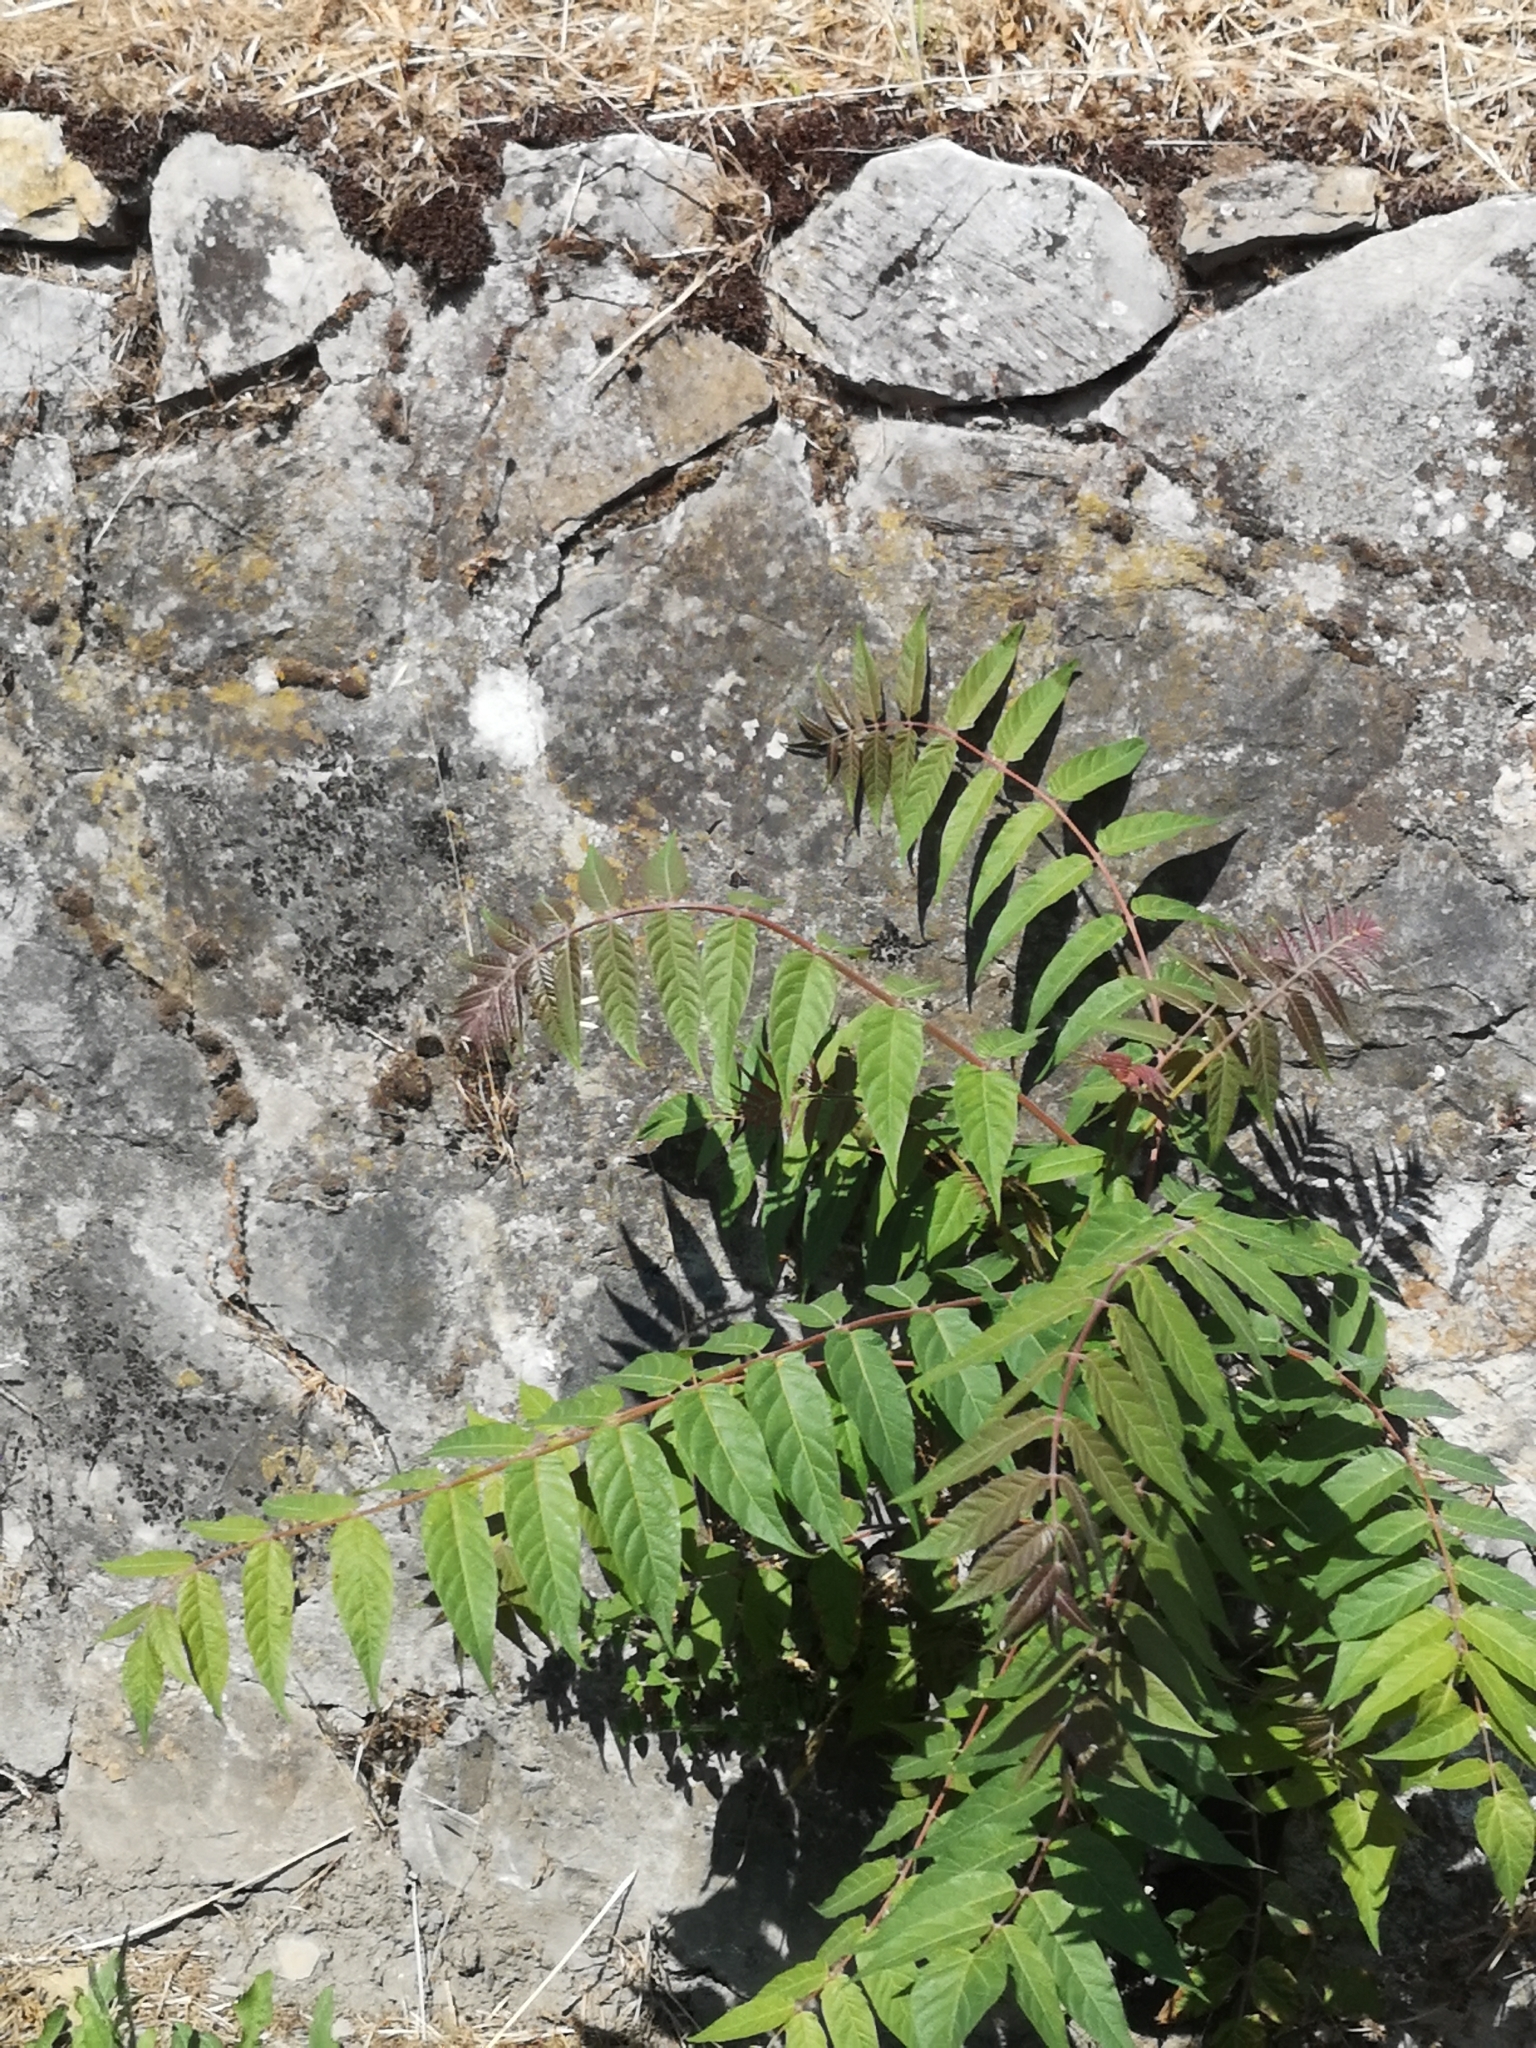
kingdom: Plantae
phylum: Tracheophyta
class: Magnoliopsida
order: Sapindales
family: Simaroubaceae
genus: Ailanthus
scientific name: Ailanthus altissima
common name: Tree-of-heaven
